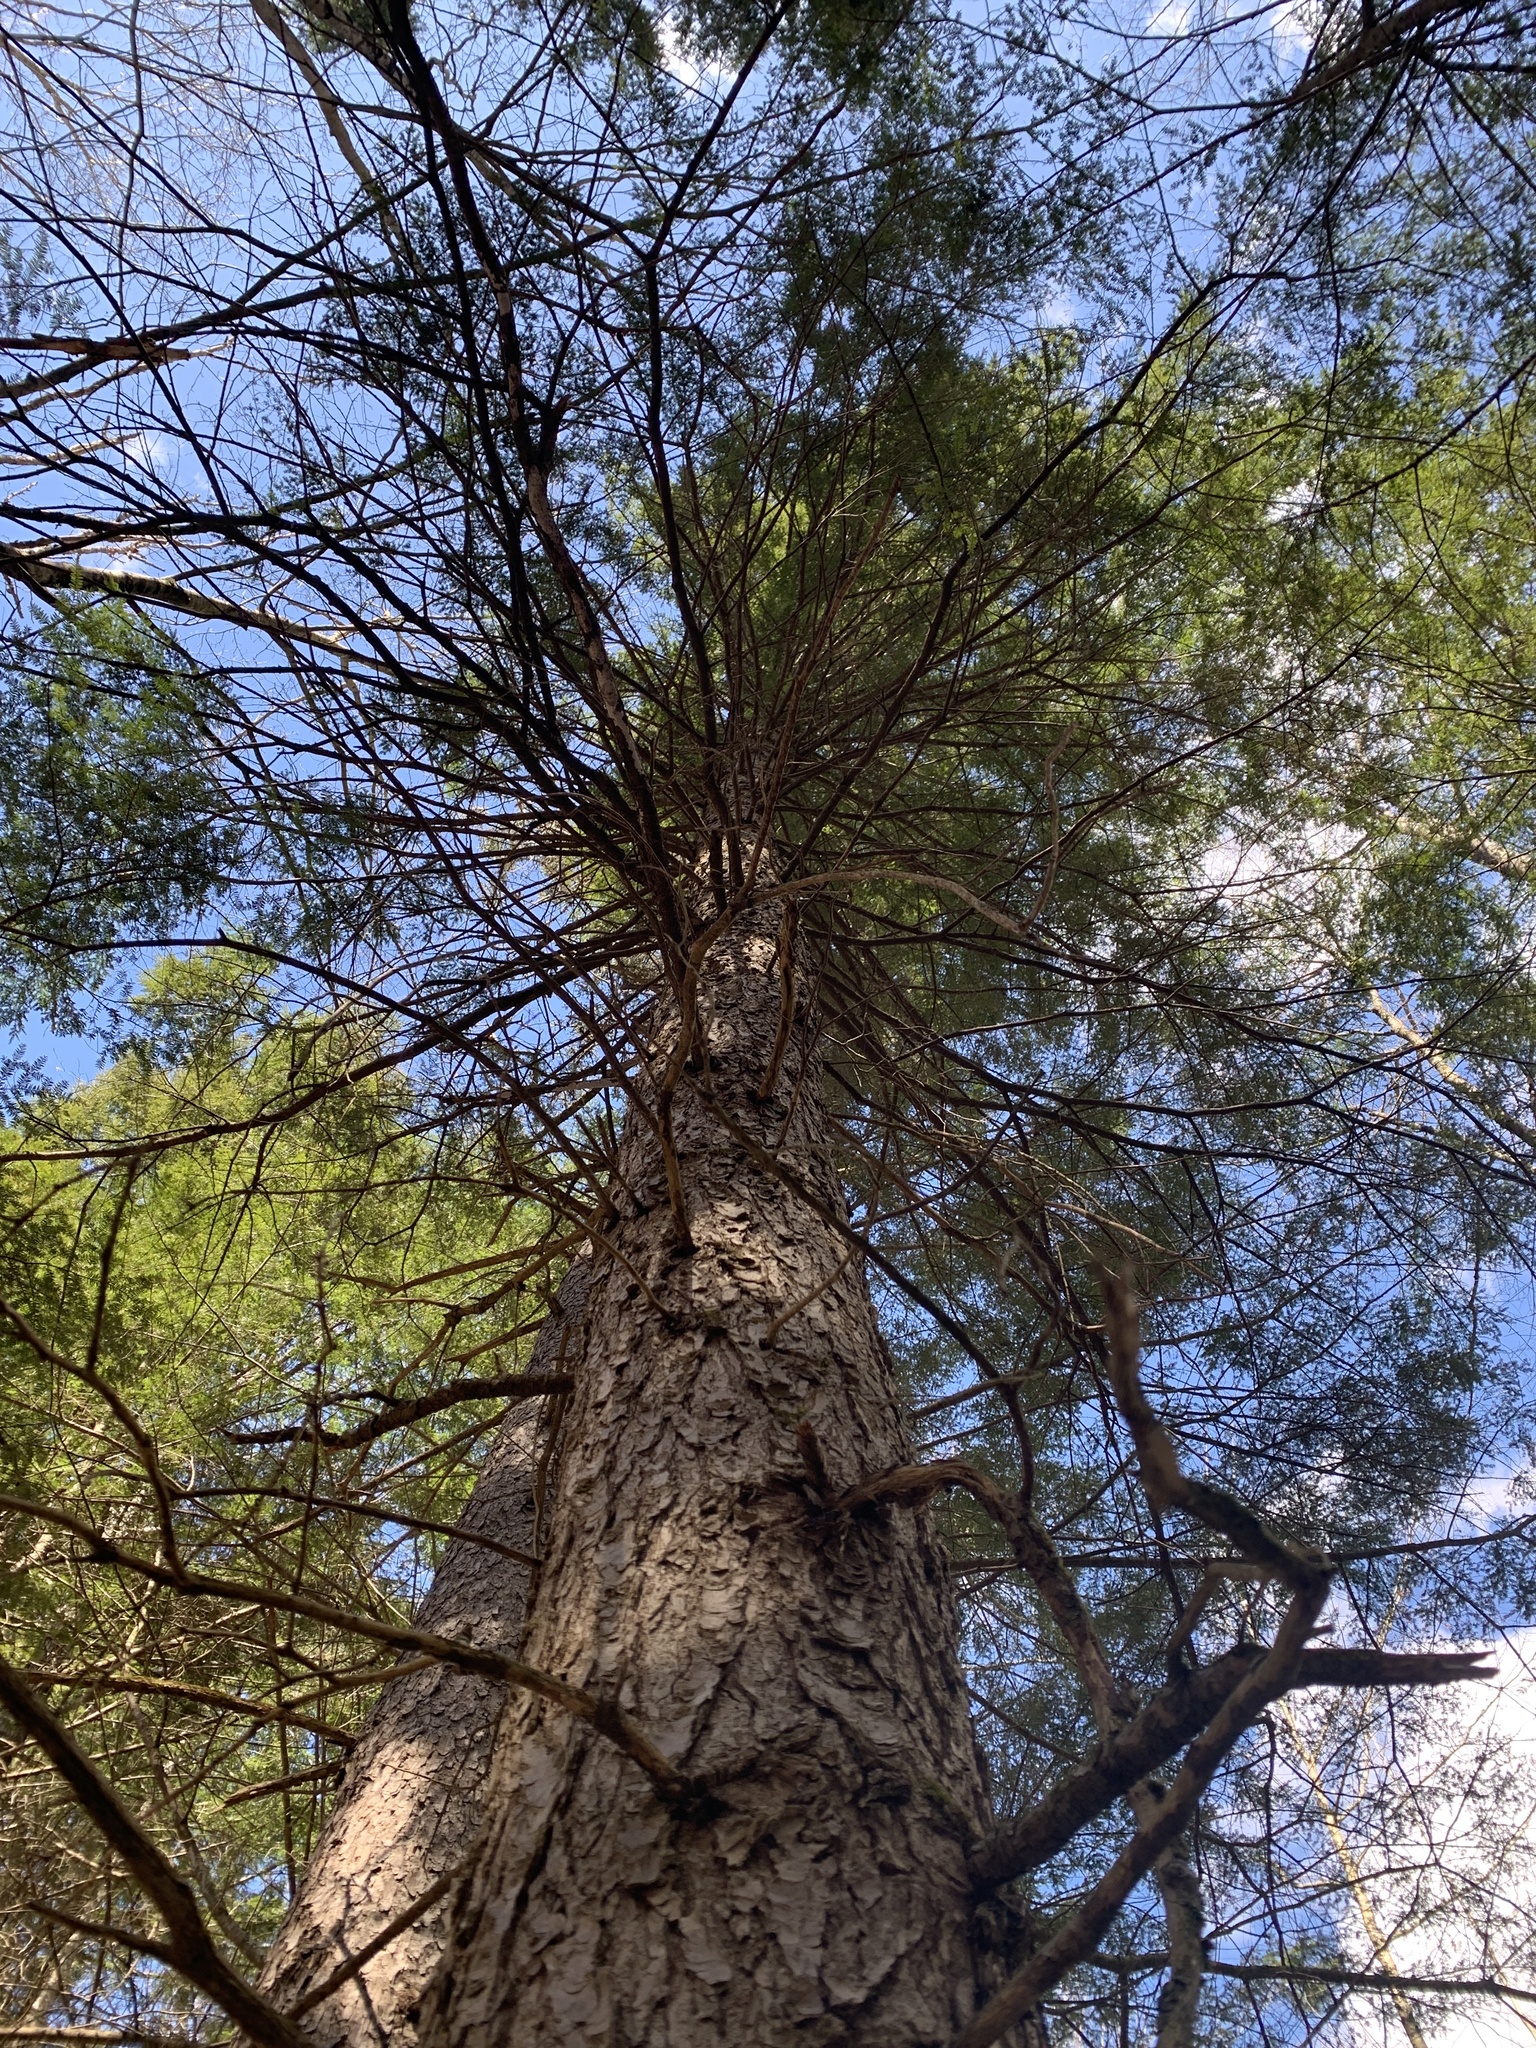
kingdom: Plantae
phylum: Tracheophyta
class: Pinopsida
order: Pinales
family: Pinaceae
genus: Tsuga
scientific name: Tsuga canadensis
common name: Eastern hemlock
